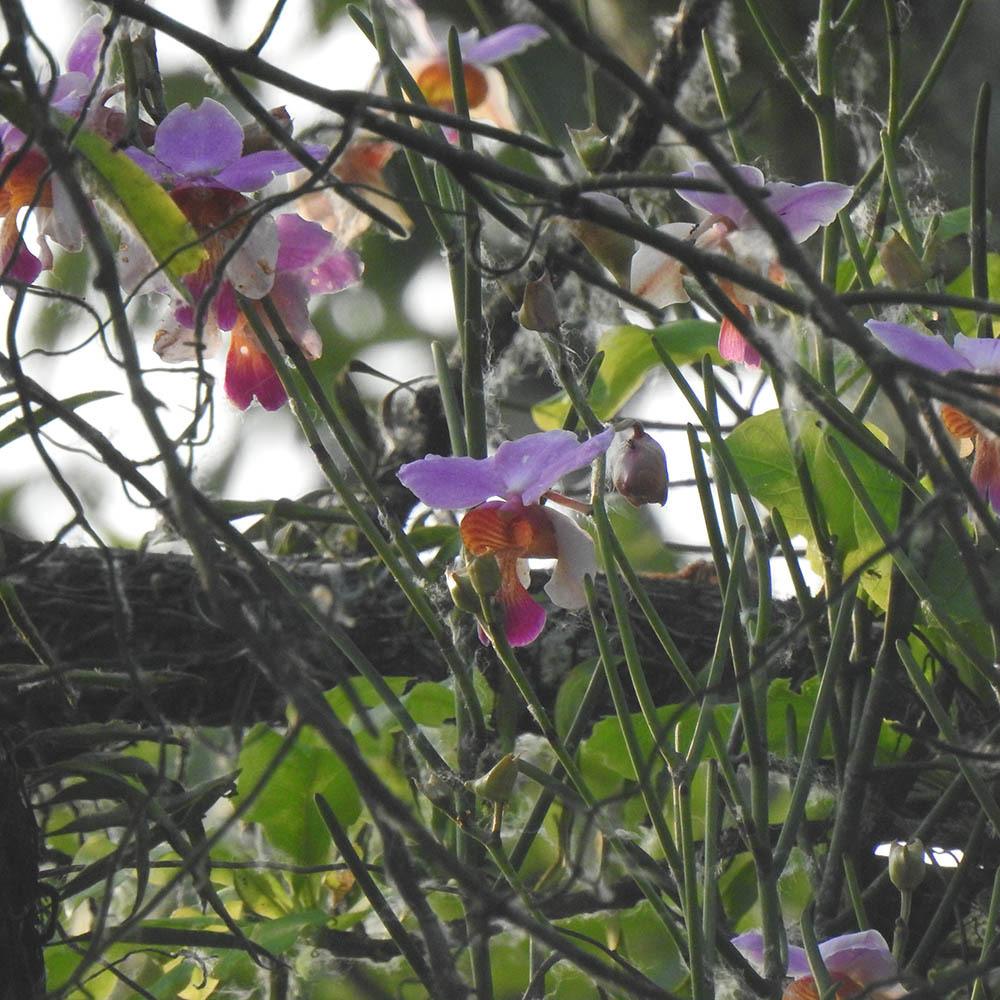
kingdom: Plantae
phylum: Tracheophyta
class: Liliopsida
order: Asparagales
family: Orchidaceae
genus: Papilionanthe
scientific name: Papilionanthe teres
